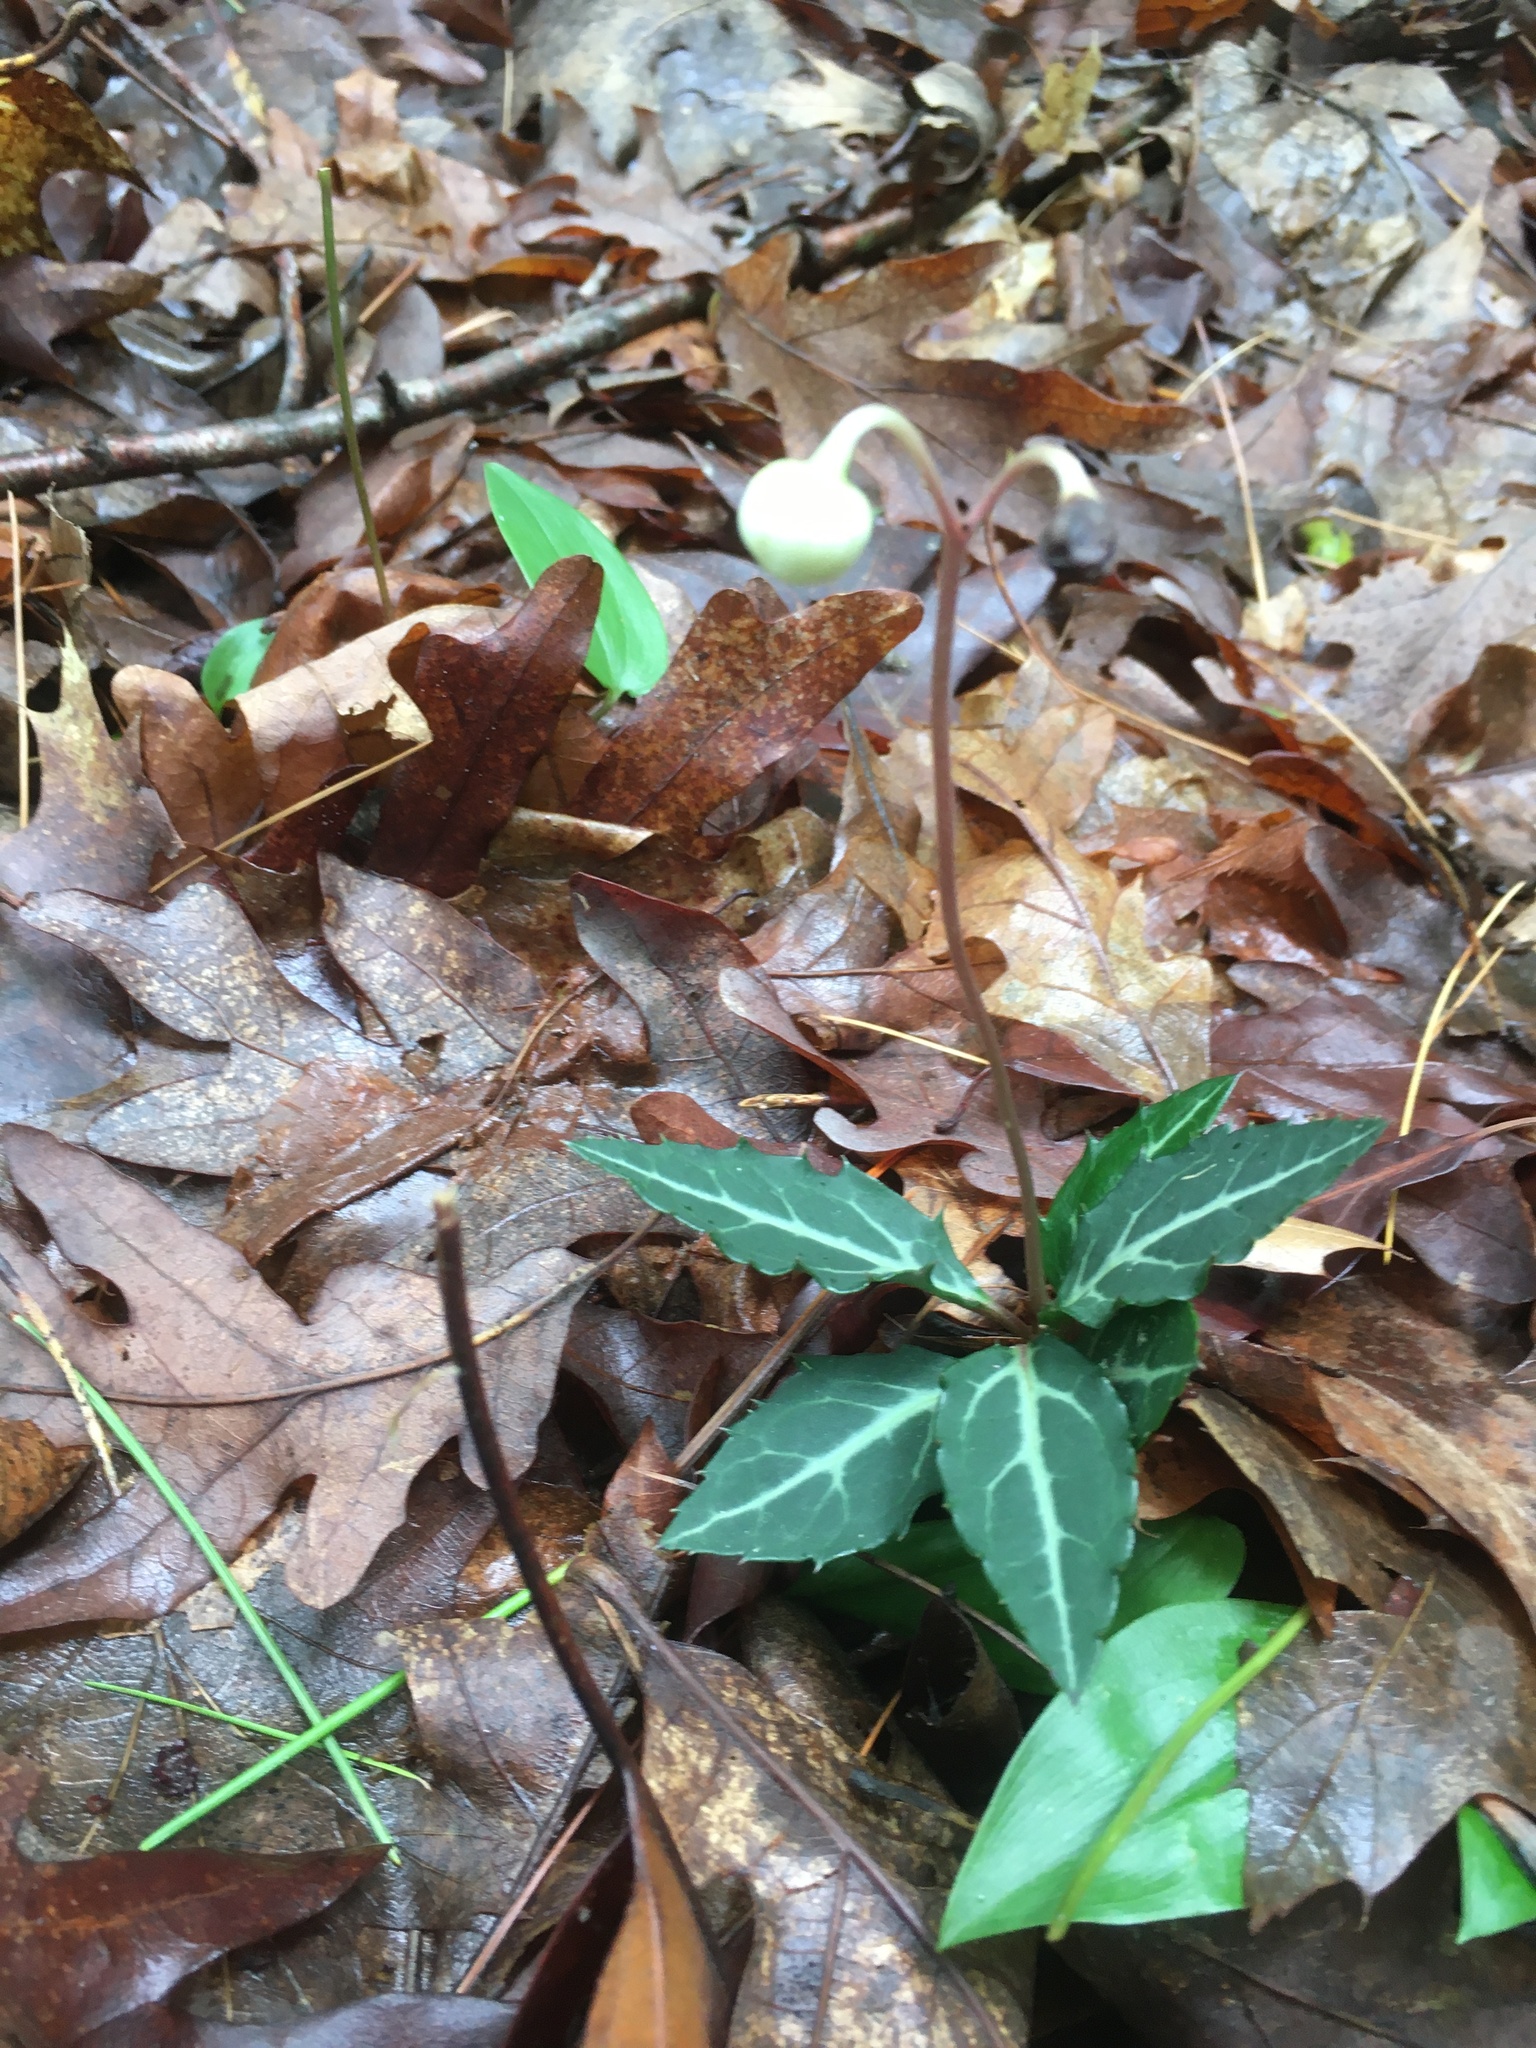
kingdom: Plantae
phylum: Tracheophyta
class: Magnoliopsida
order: Ericales
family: Ericaceae
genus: Chimaphila
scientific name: Chimaphila maculata
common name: Spotted pipsissewa
